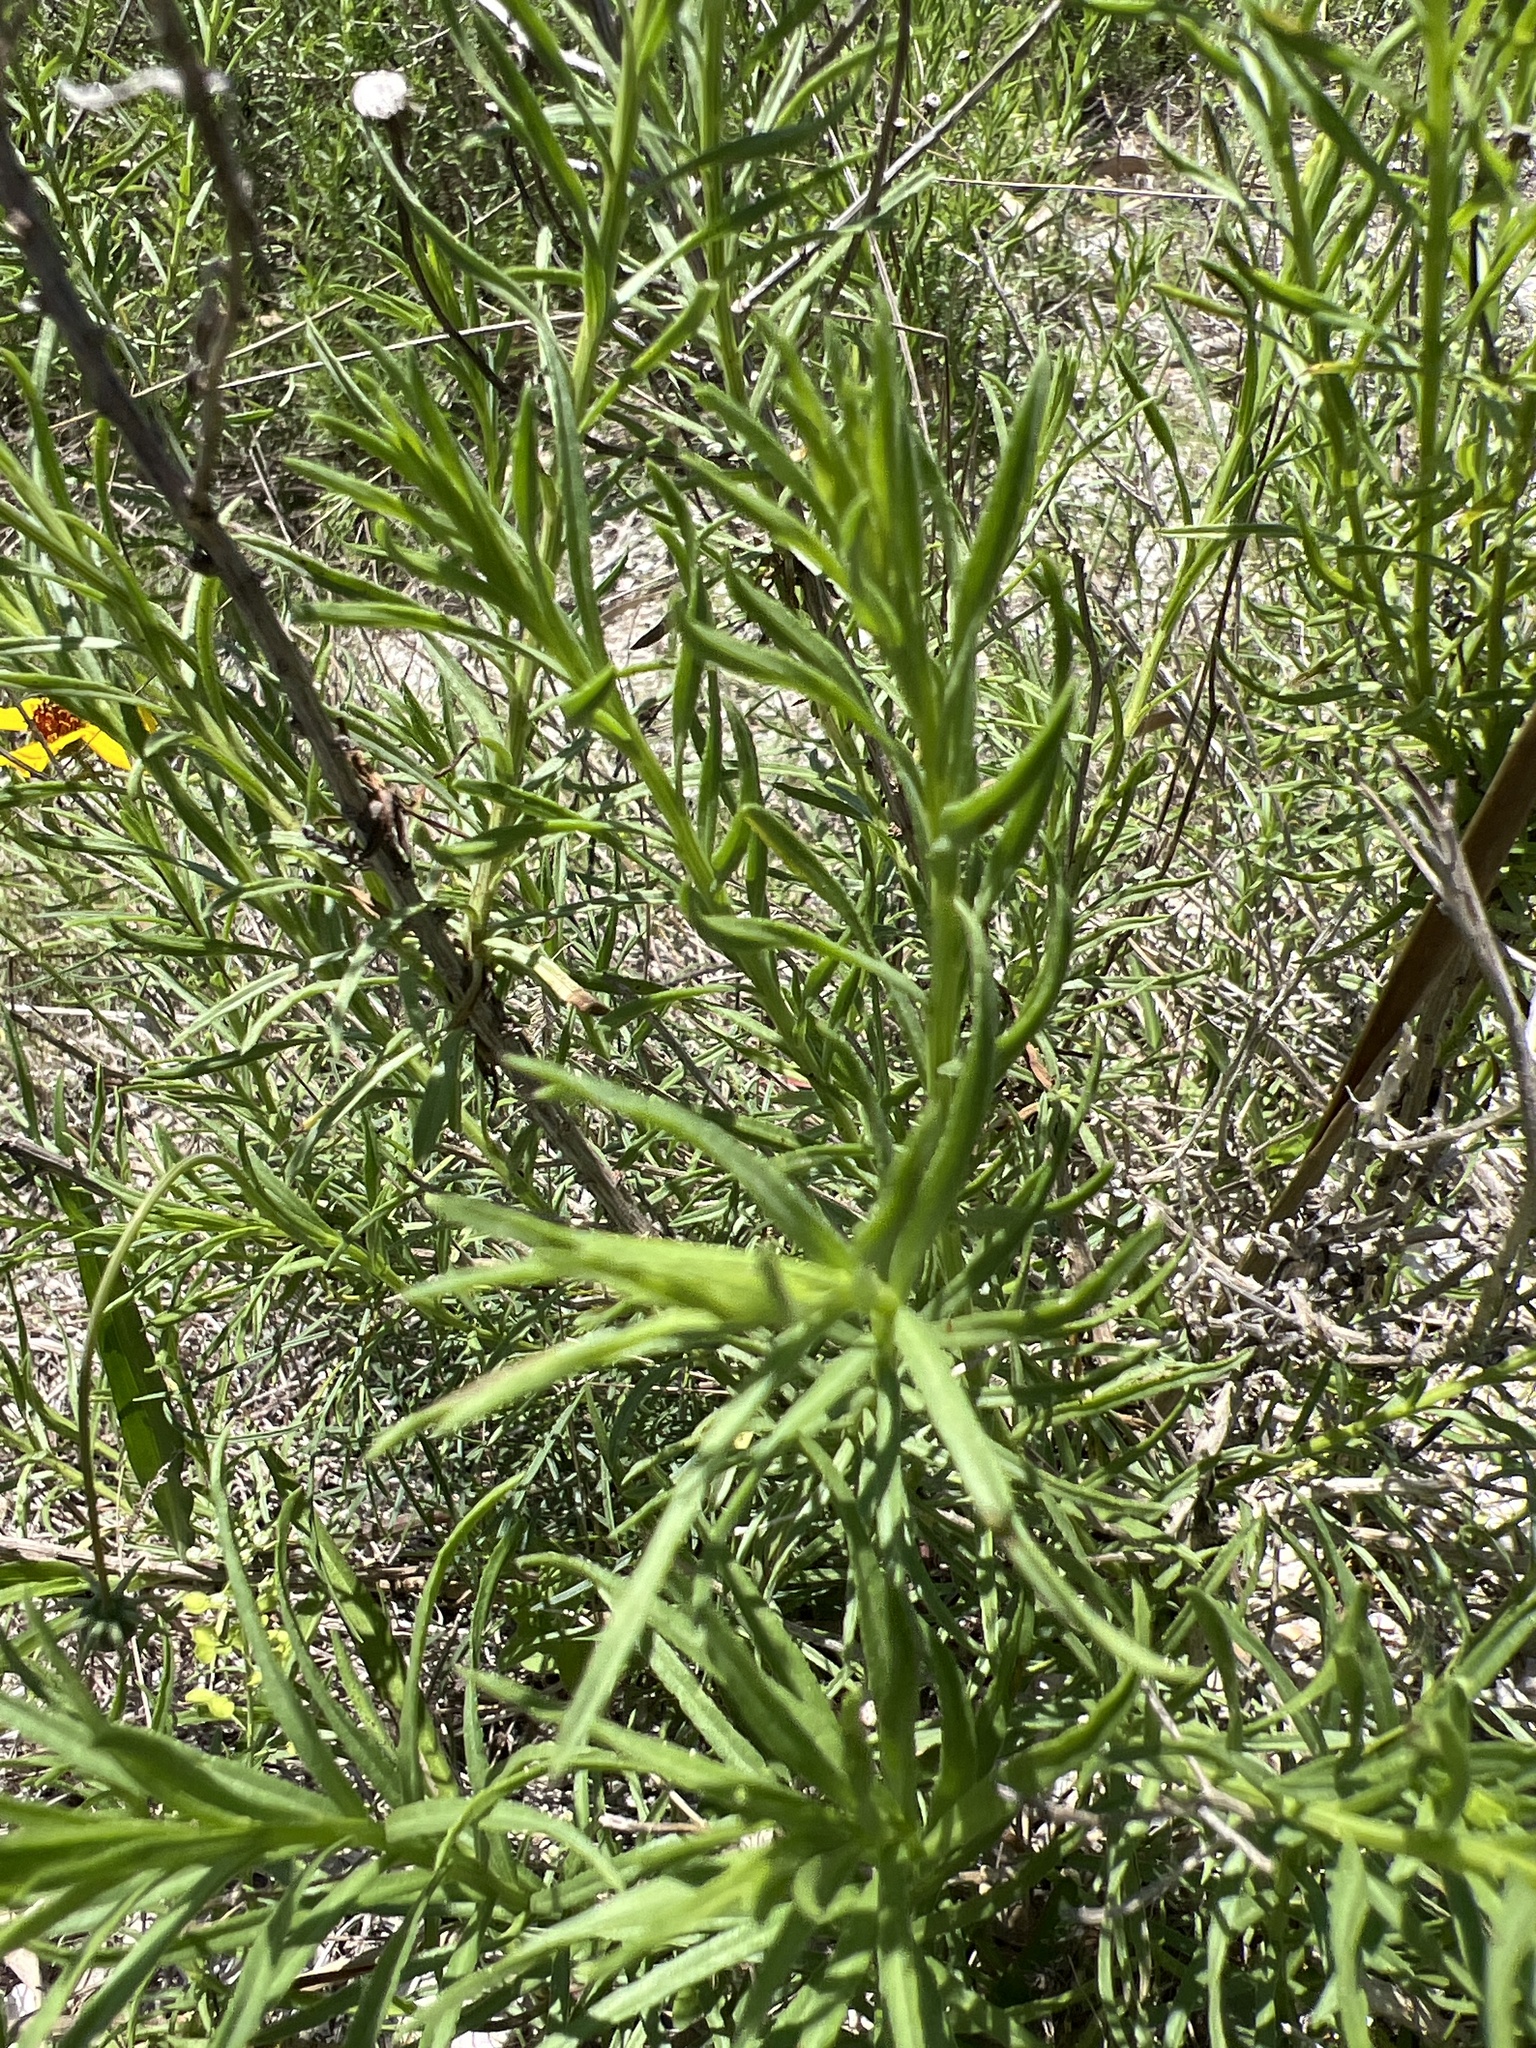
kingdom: Plantae
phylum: Tracheophyta
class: Magnoliopsida
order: Asterales
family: Asteraceae
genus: Thelesperma
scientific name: Thelesperma filifolium
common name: Stiff greenthread
